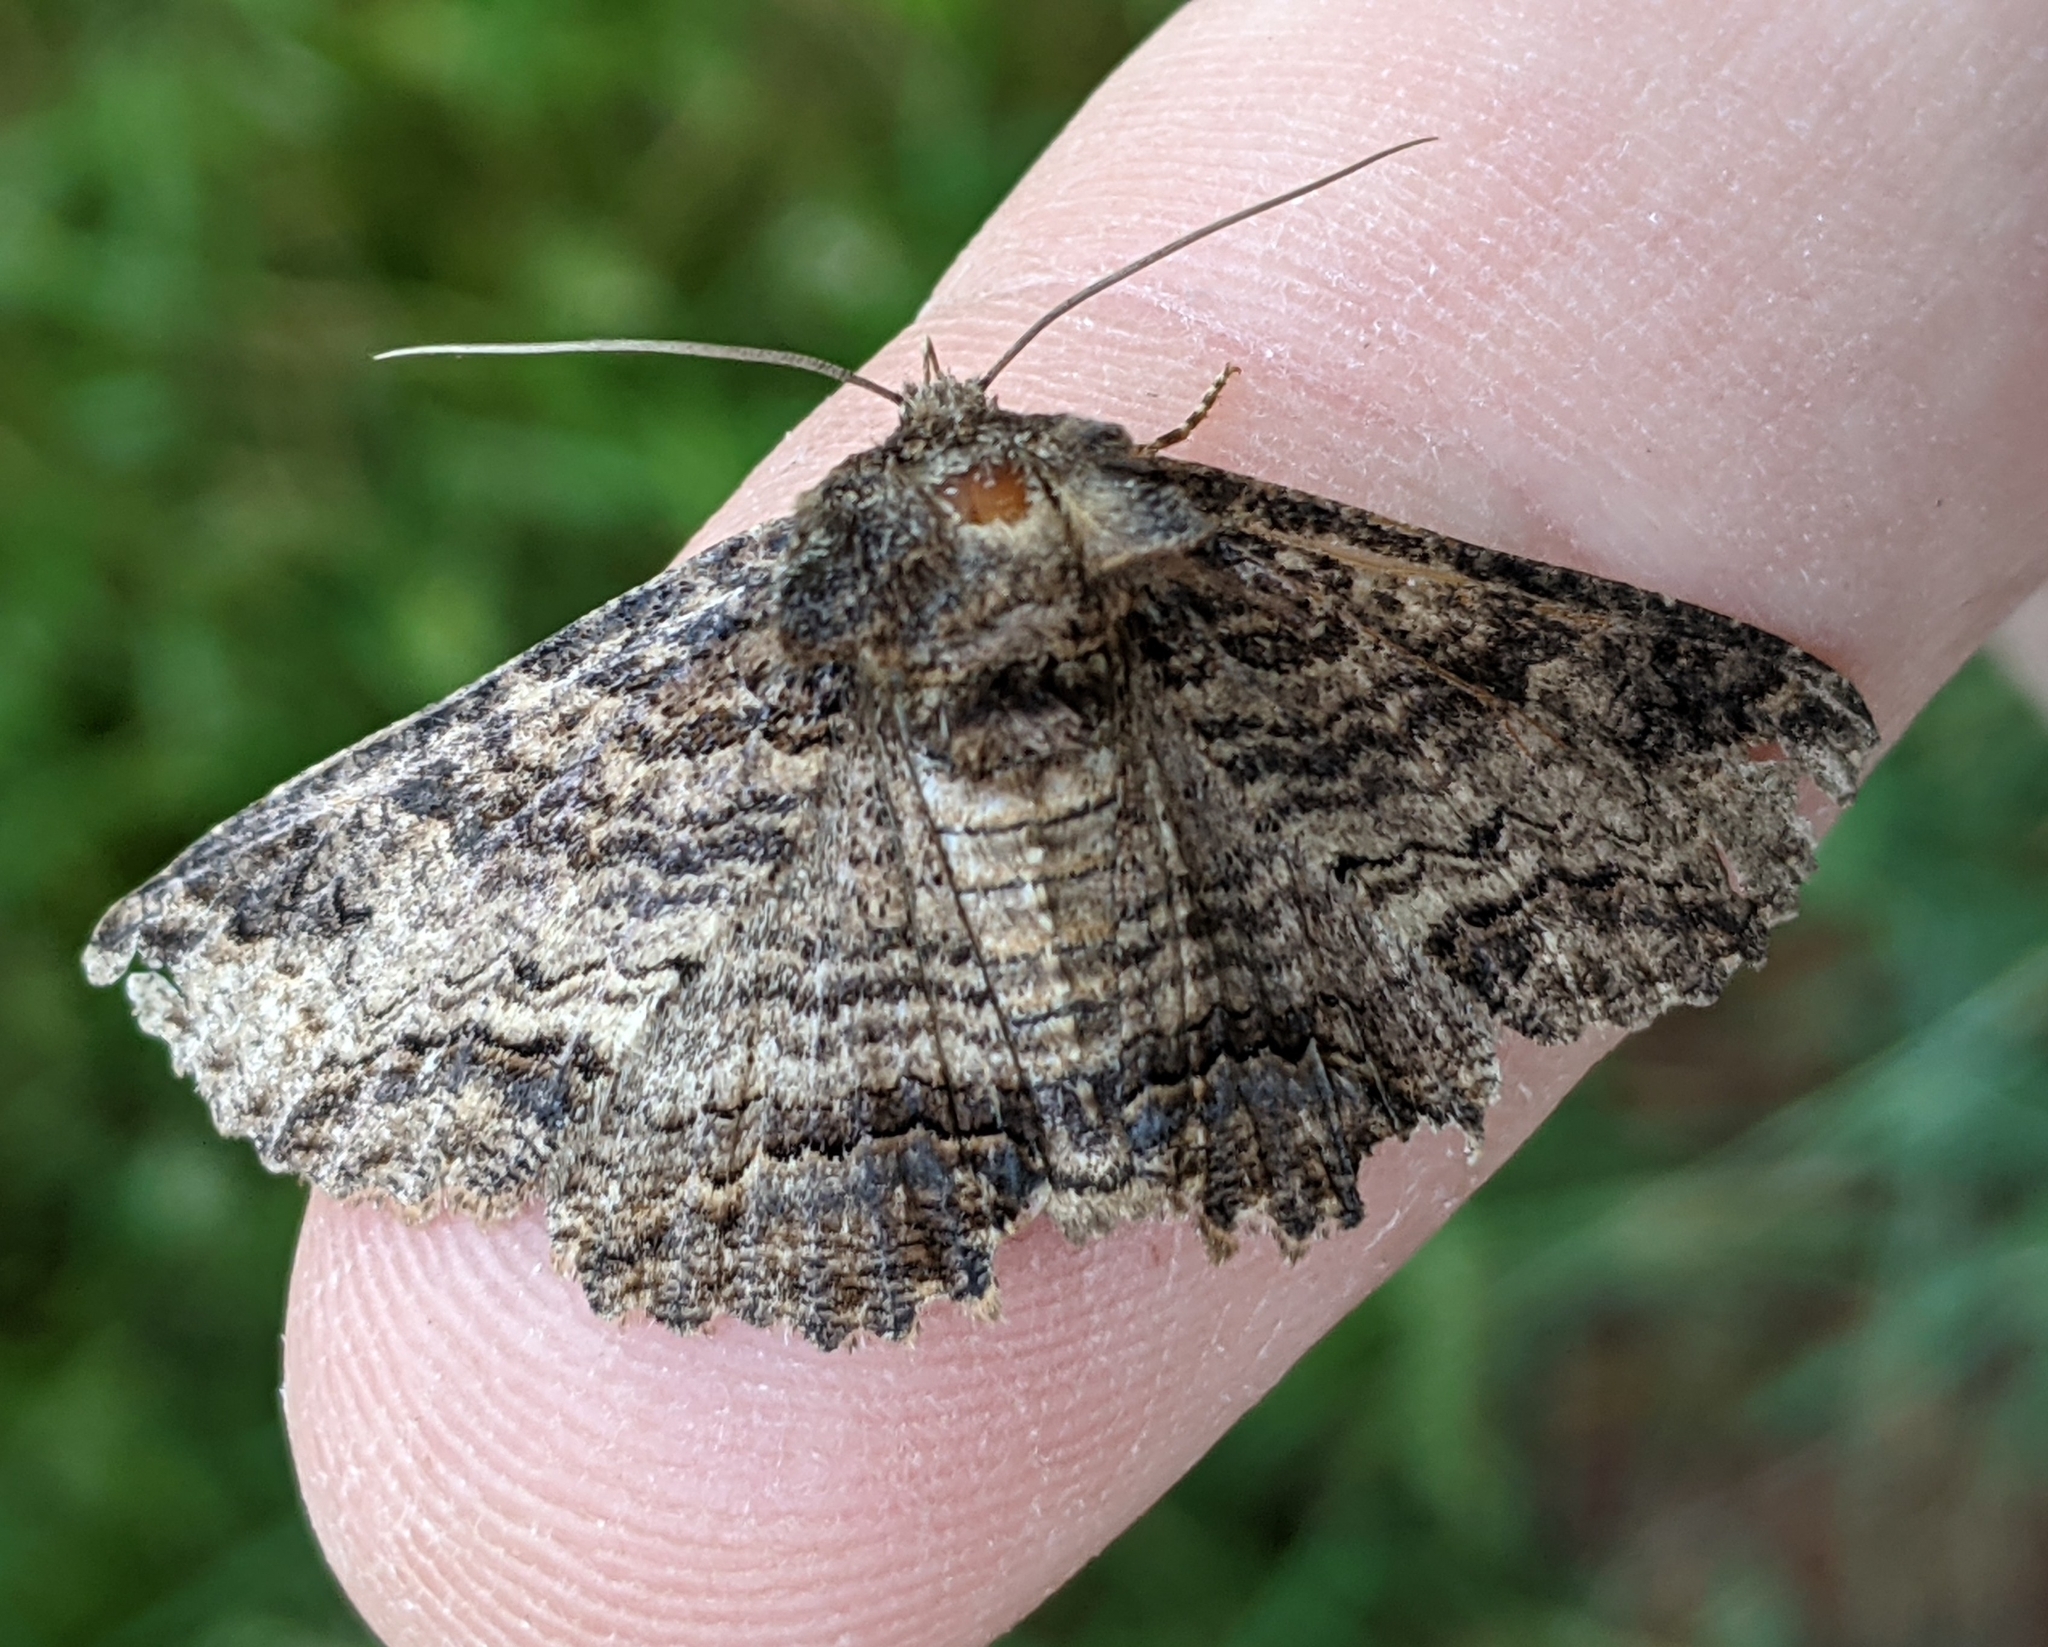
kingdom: Animalia
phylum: Arthropoda
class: Insecta
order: Lepidoptera
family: Erebidae
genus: Zale
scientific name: Zale lunata
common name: Lunate zale moth
